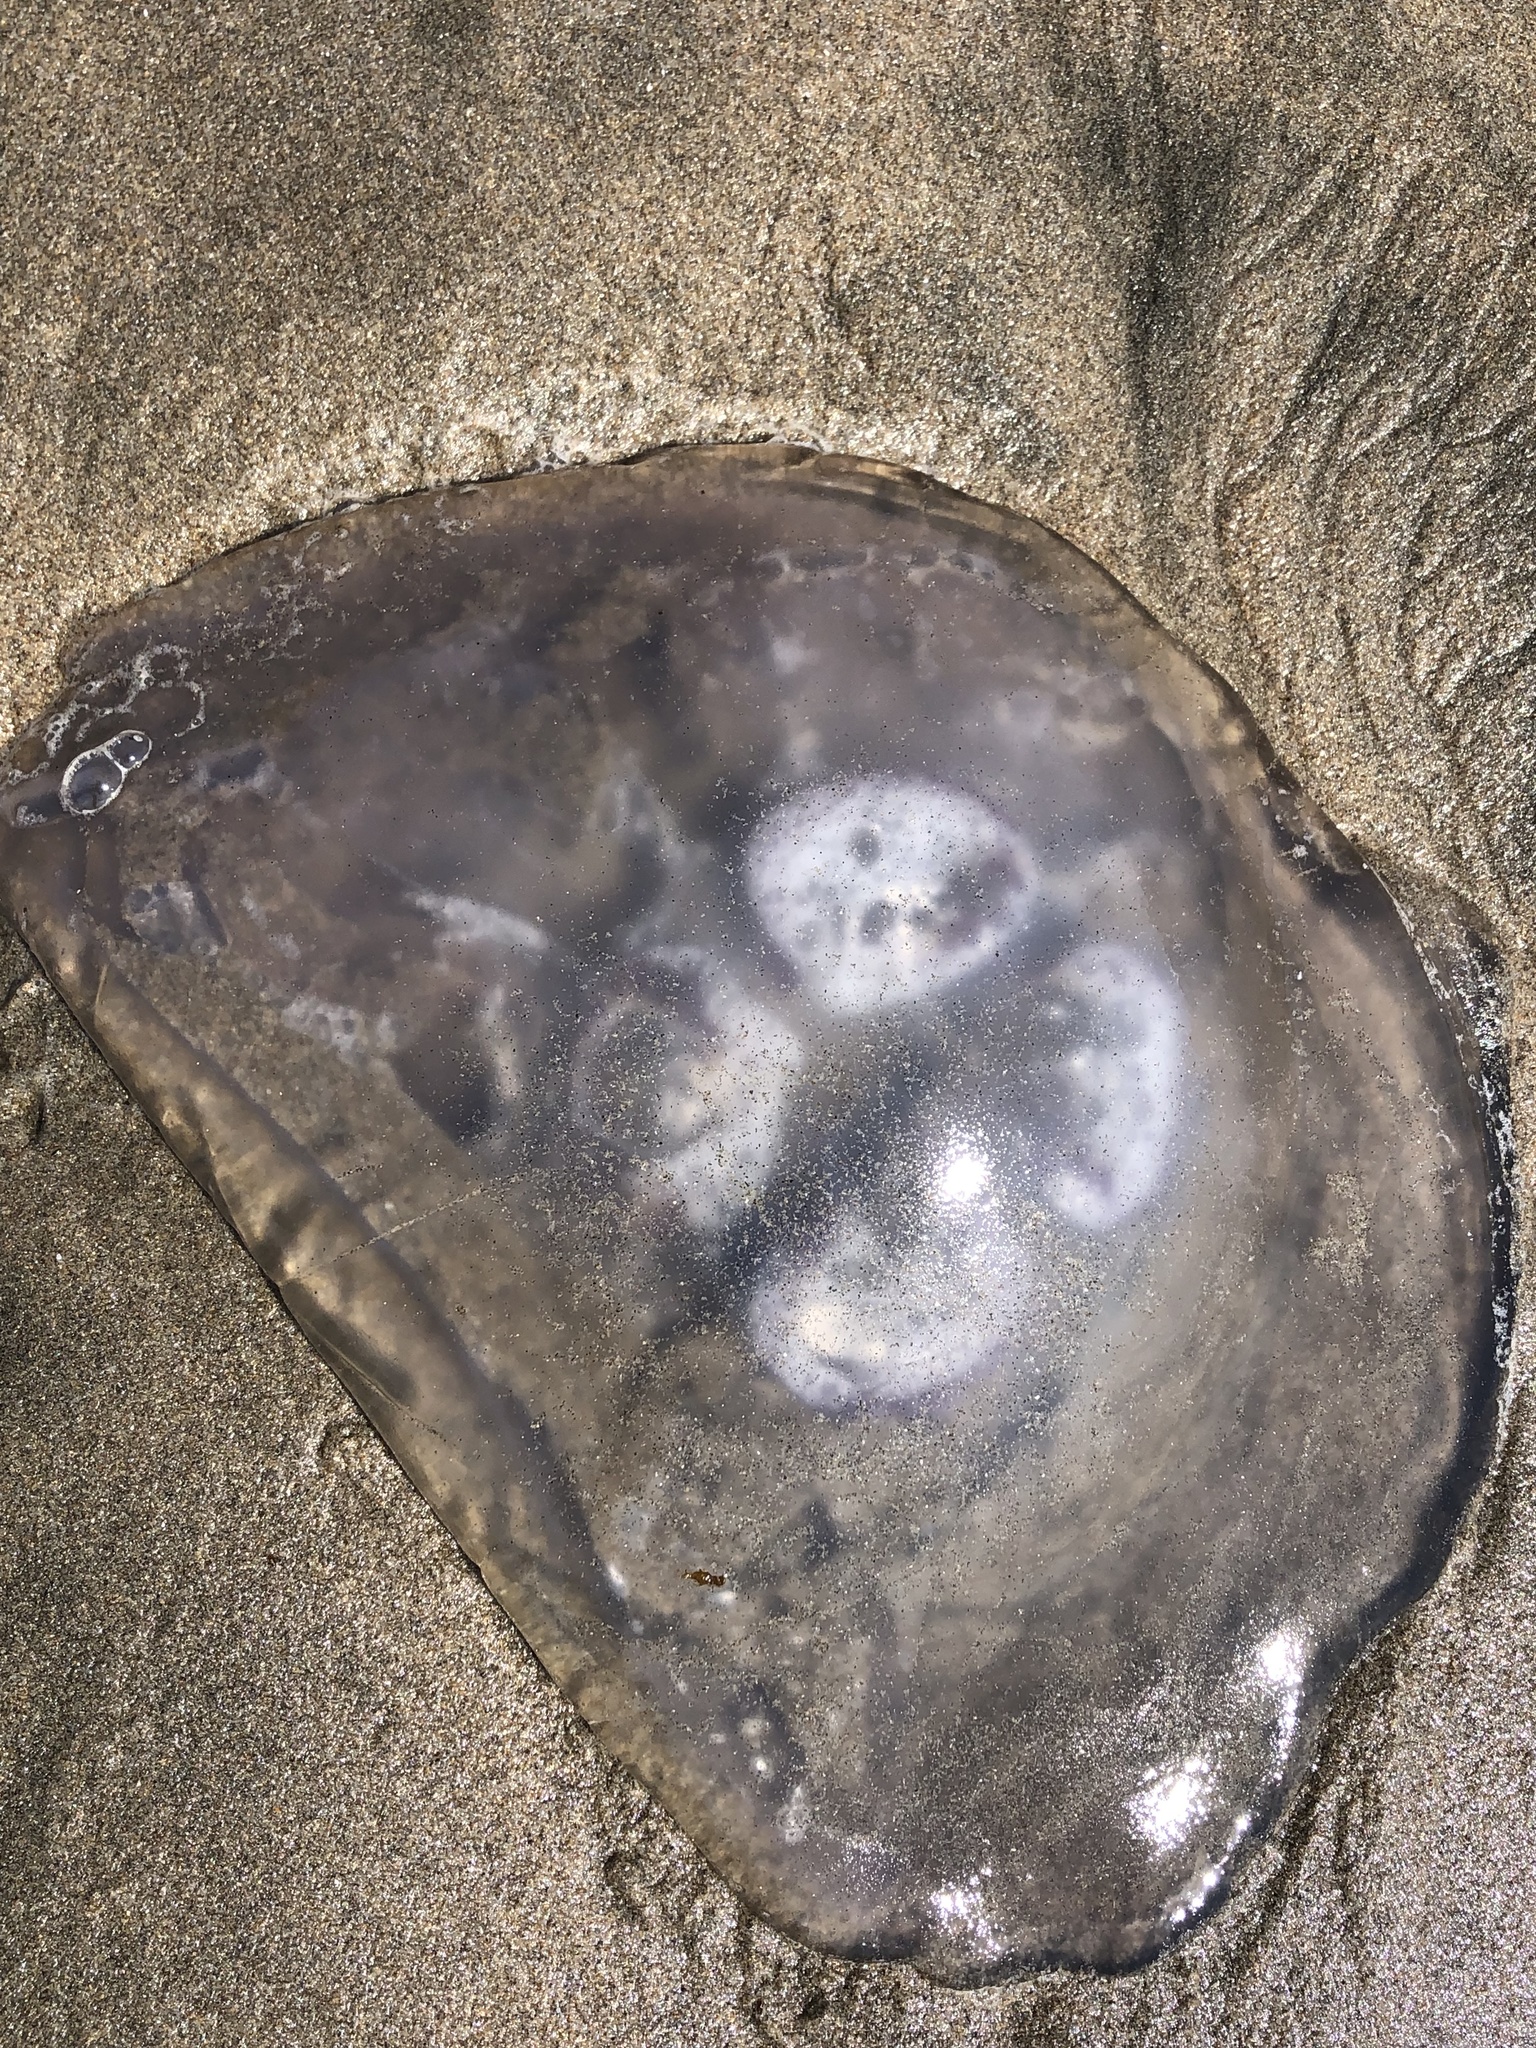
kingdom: Animalia
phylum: Cnidaria
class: Scyphozoa
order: Semaeostomeae
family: Ulmaridae
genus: Aurelia
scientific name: Aurelia labiata
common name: Pacific moon jelly
